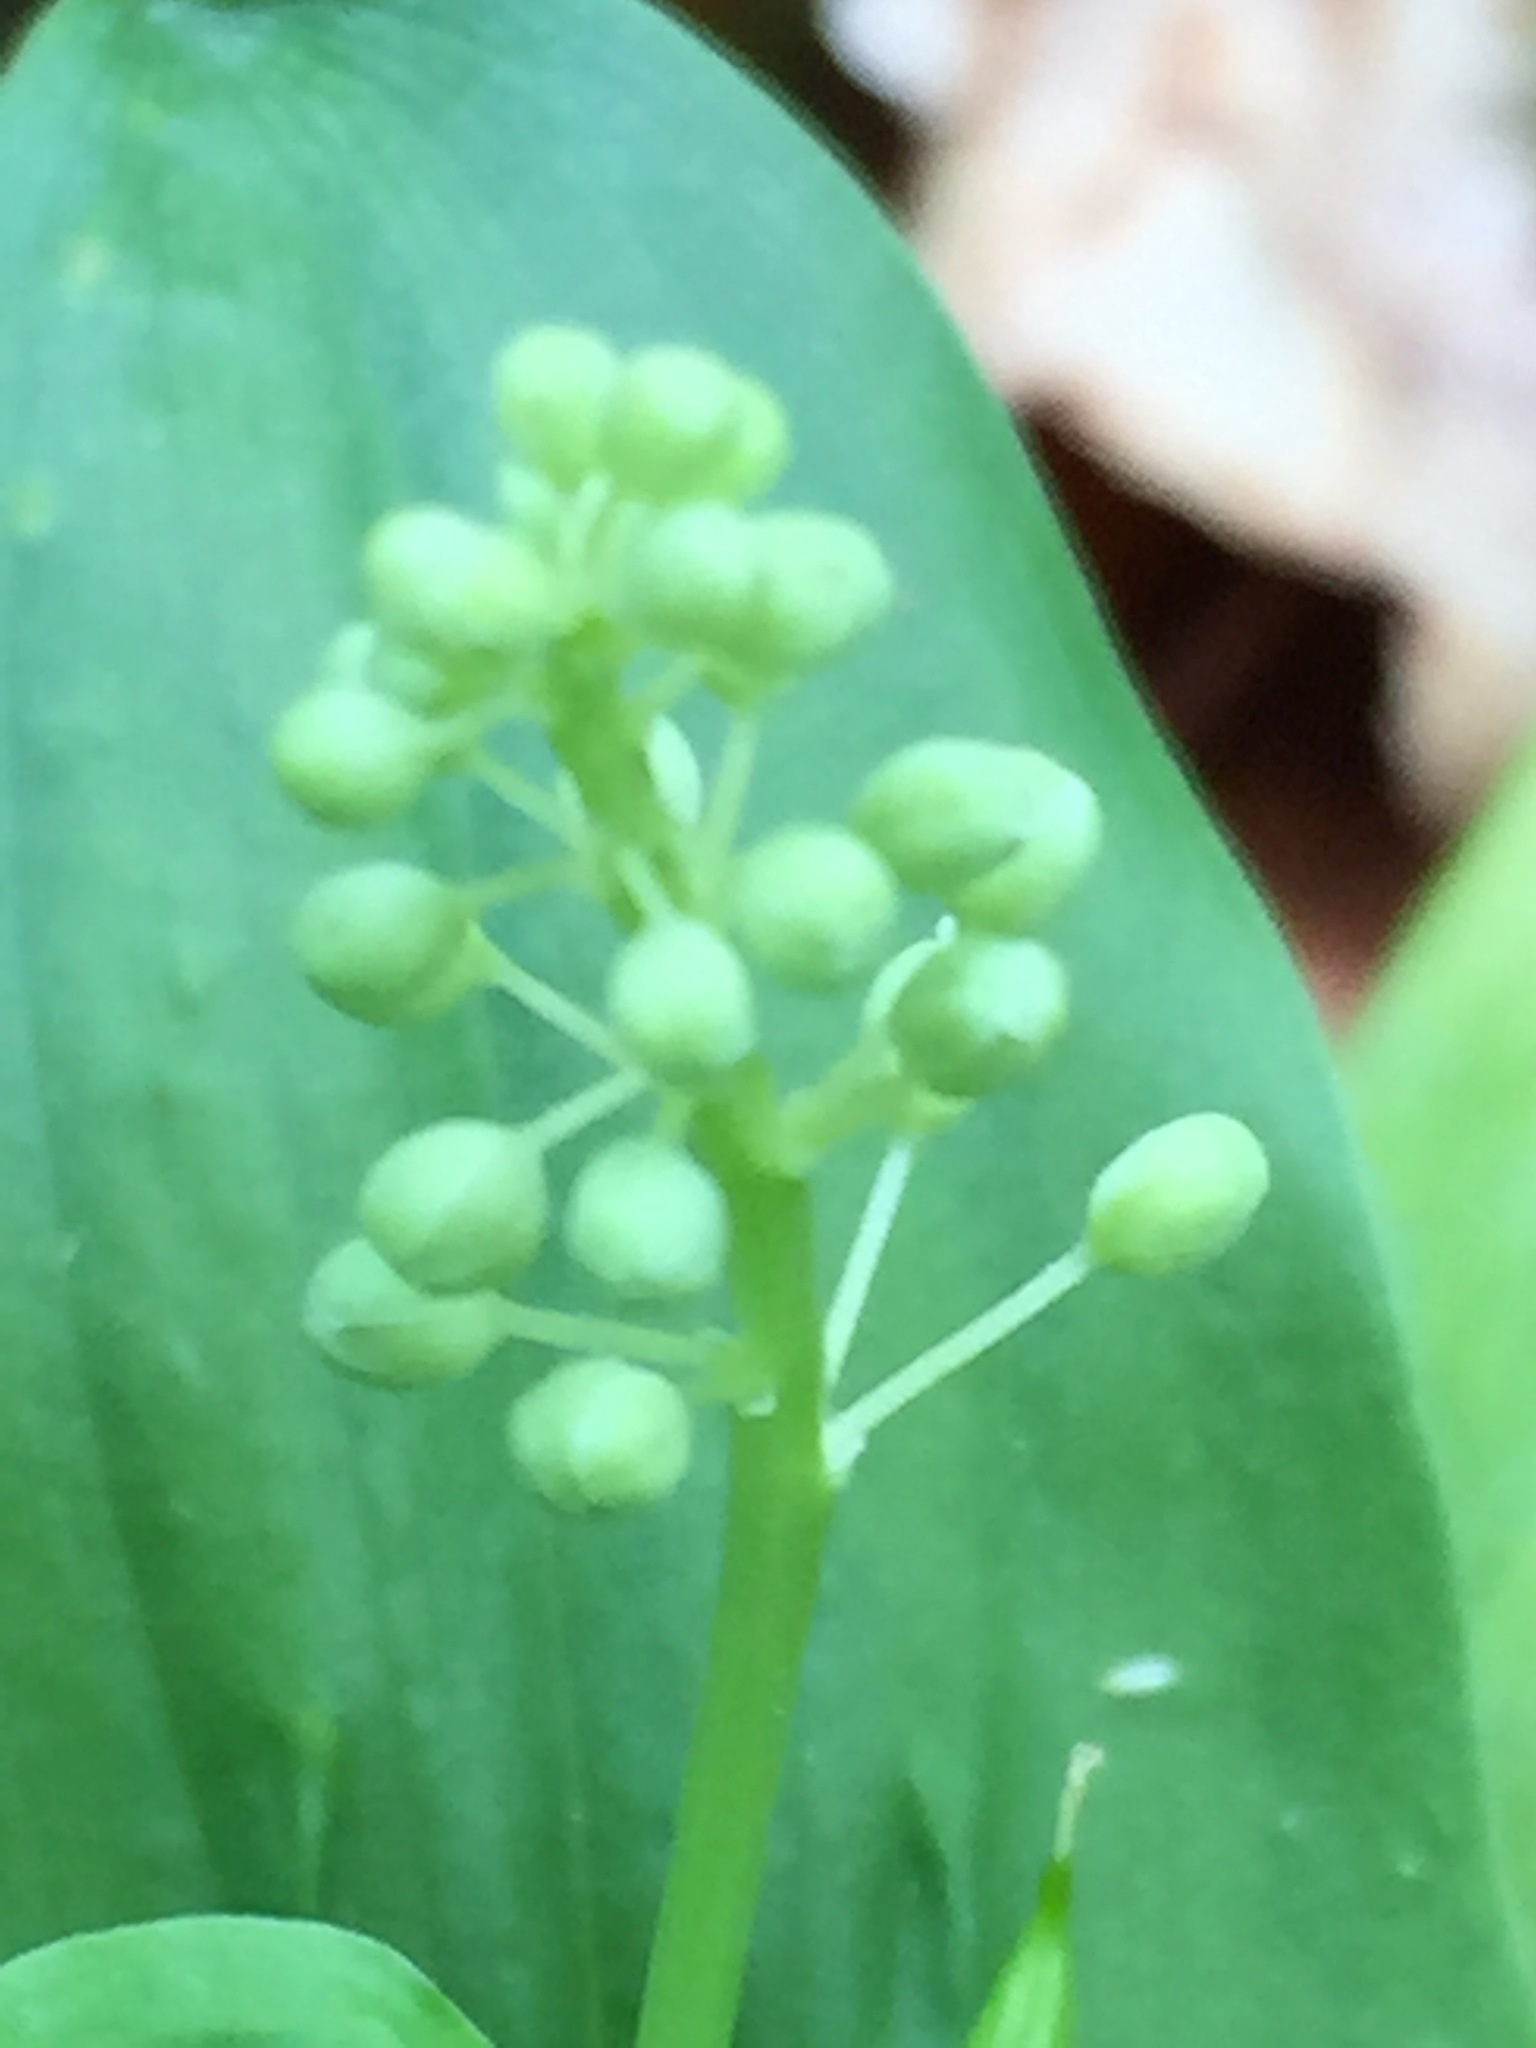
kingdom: Plantae
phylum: Tracheophyta
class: Liliopsida
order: Asparagales
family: Asparagaceae
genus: Maianthemum
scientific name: Maianthemum canadense
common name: False lily-of-the-valley
